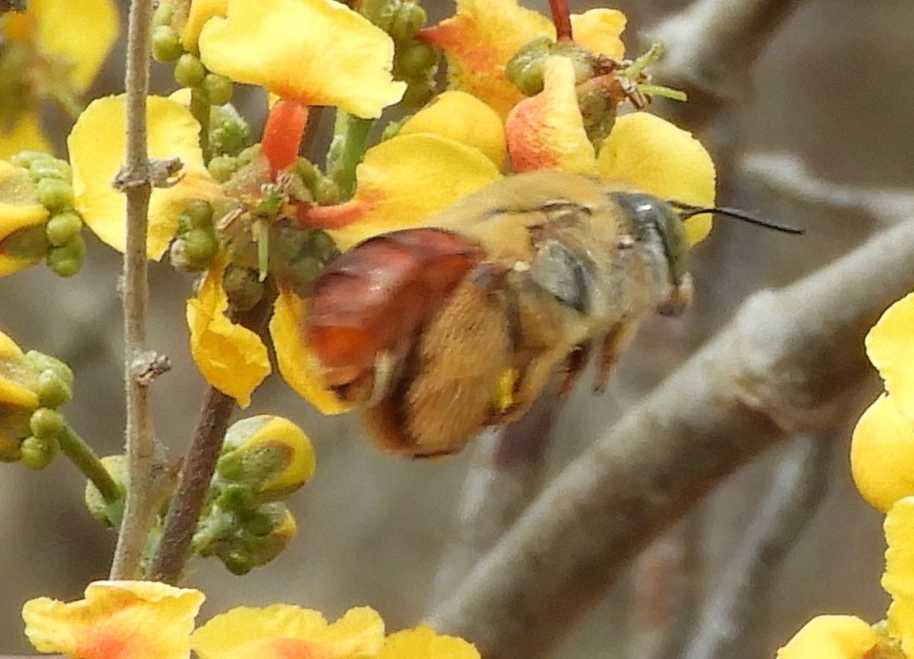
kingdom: Animalia
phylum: Arthropoda
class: Insecta
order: Hymenoptera
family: Apidae
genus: Centris
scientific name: Centris eurypatana
